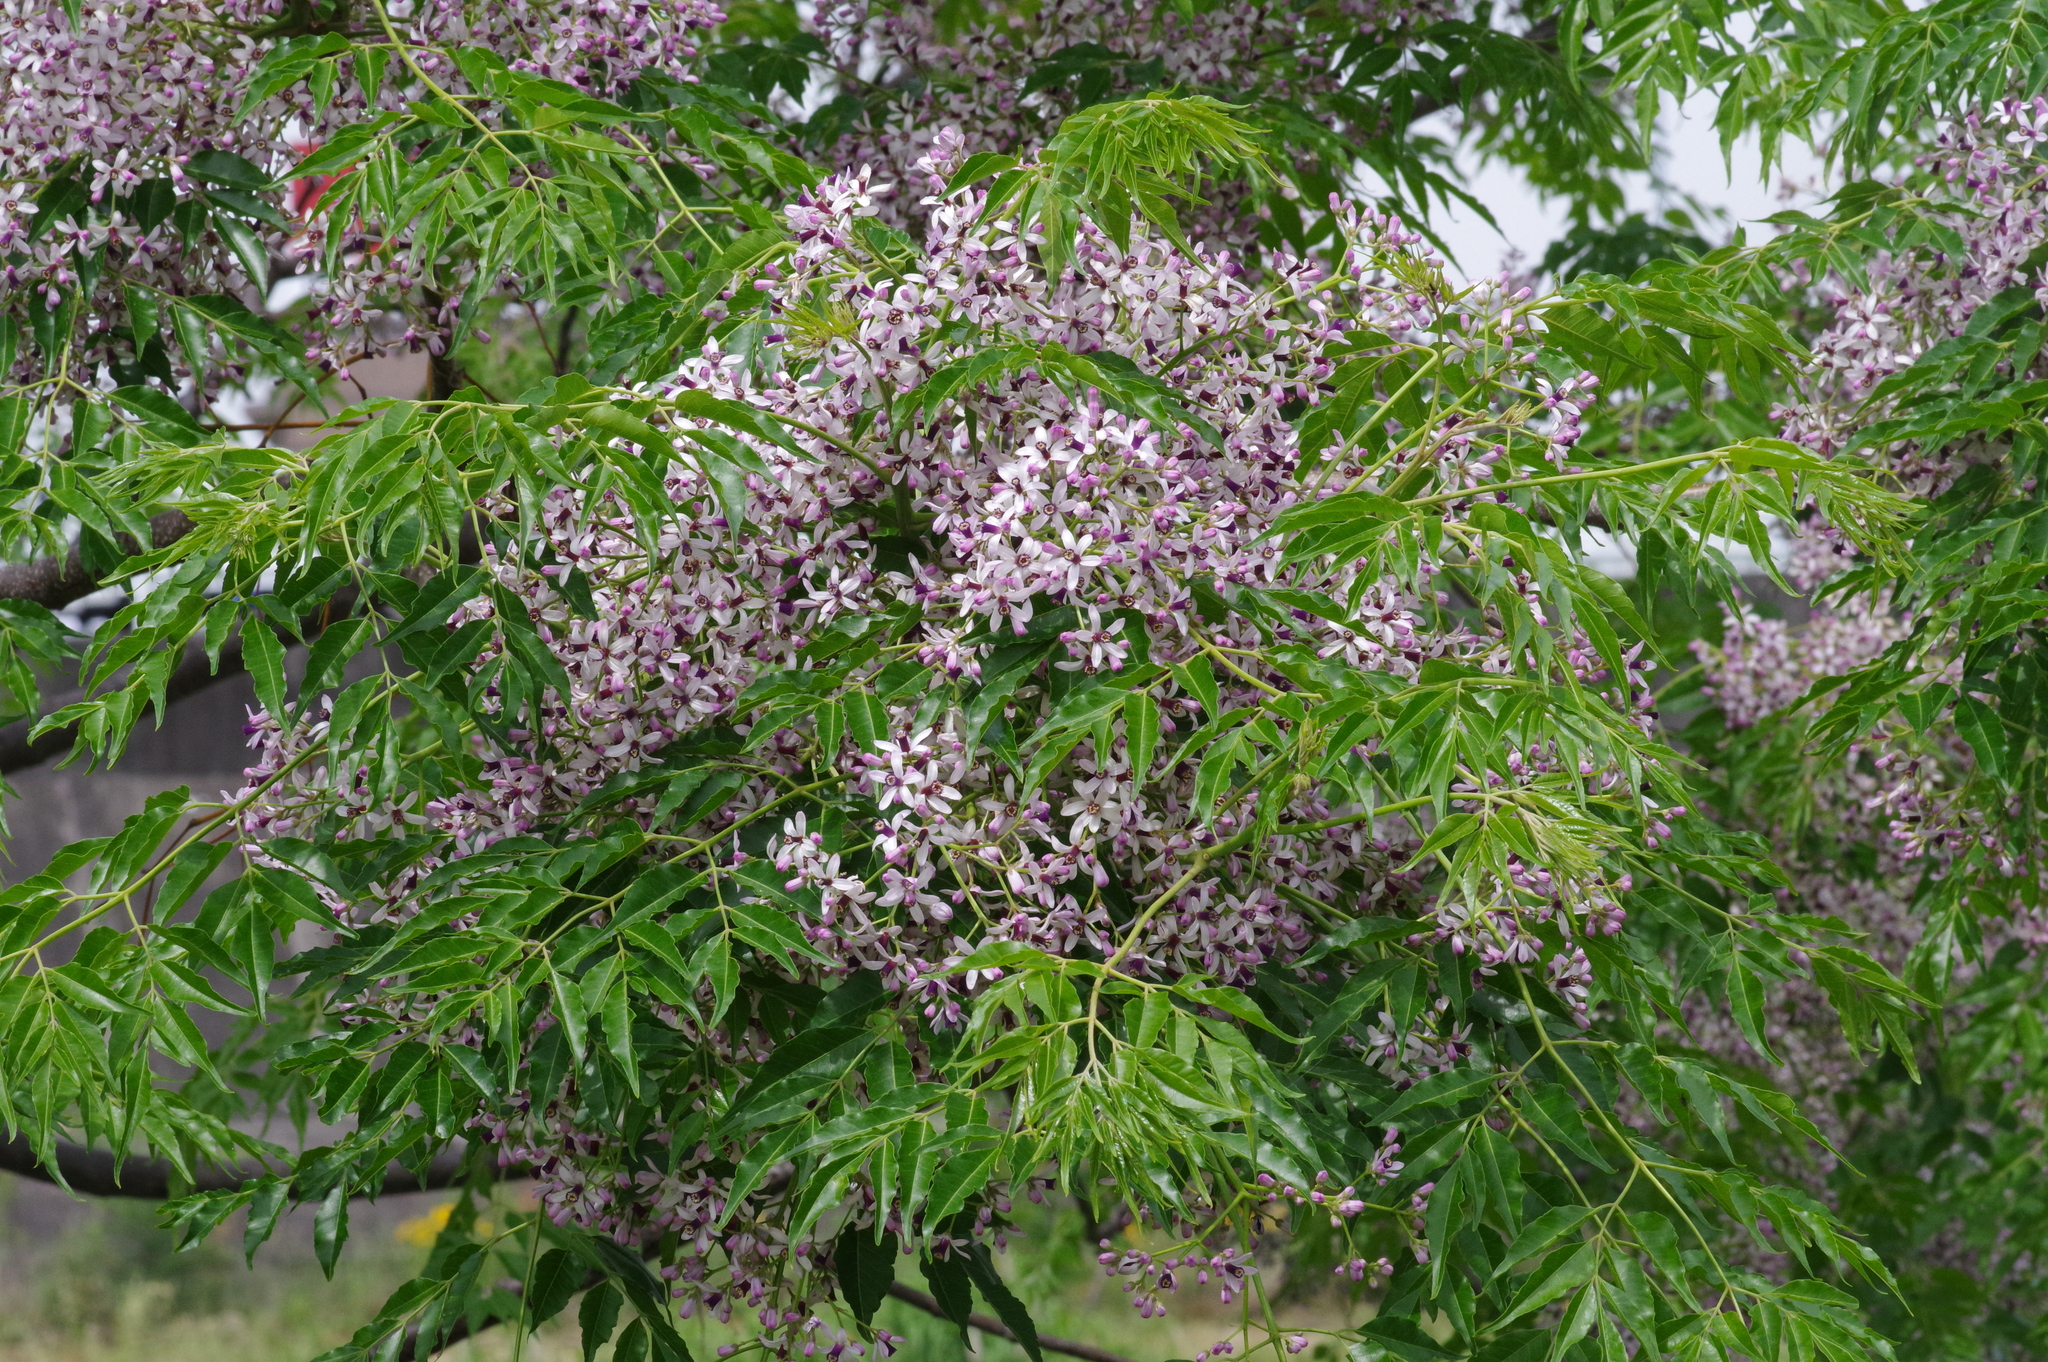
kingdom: Plantae
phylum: Tracheophyta
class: Magnoliopsida
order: Sapindales
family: Meliaceae
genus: Melia
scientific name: Melia azedarach
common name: Chinaberrytree
